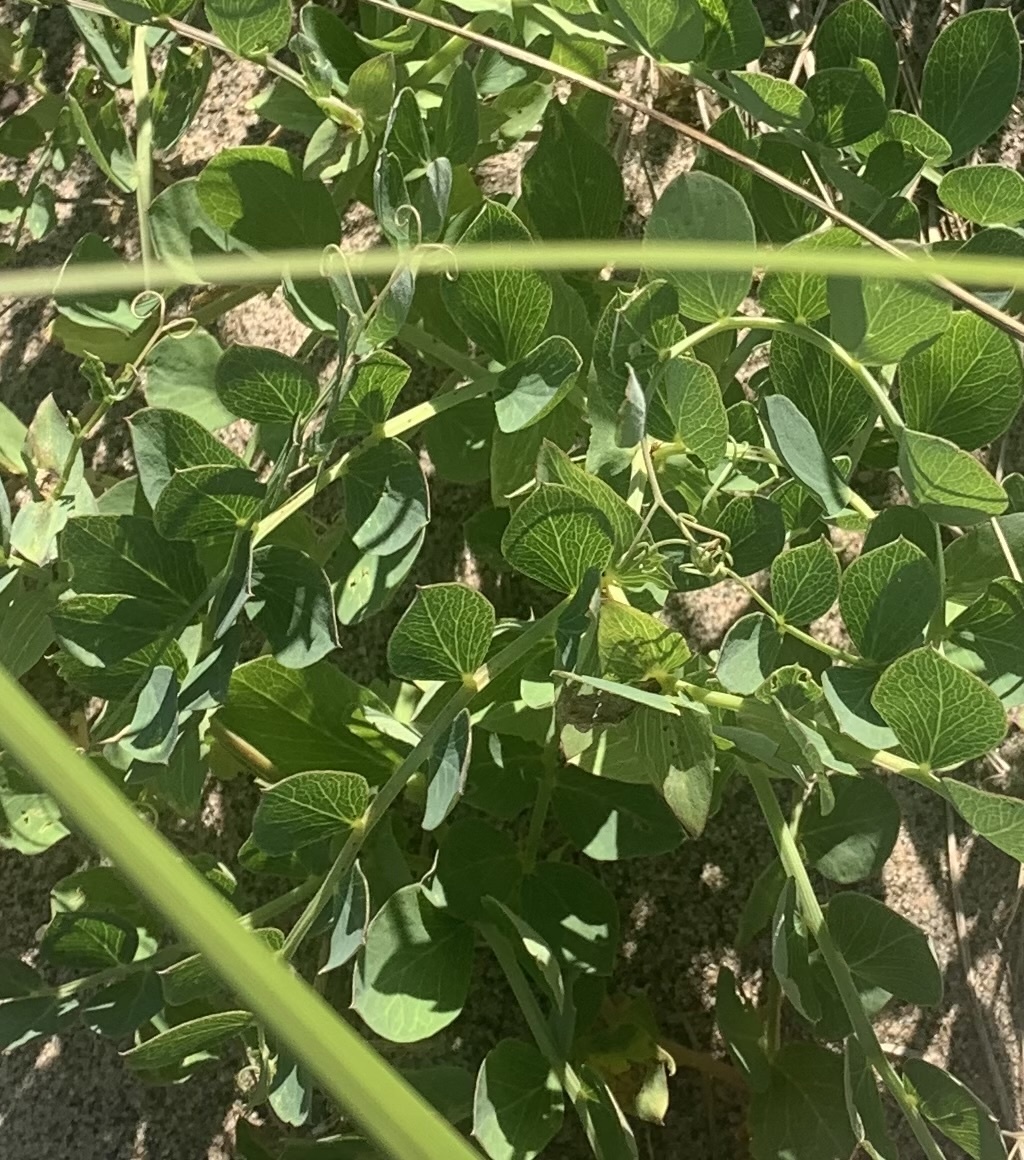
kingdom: Plantae
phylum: Tracheophyta
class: Magnoliopsida
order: Fabales
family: Fabaceae
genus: Lathyrus
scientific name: Lathyrus japonicus
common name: Sea pea
